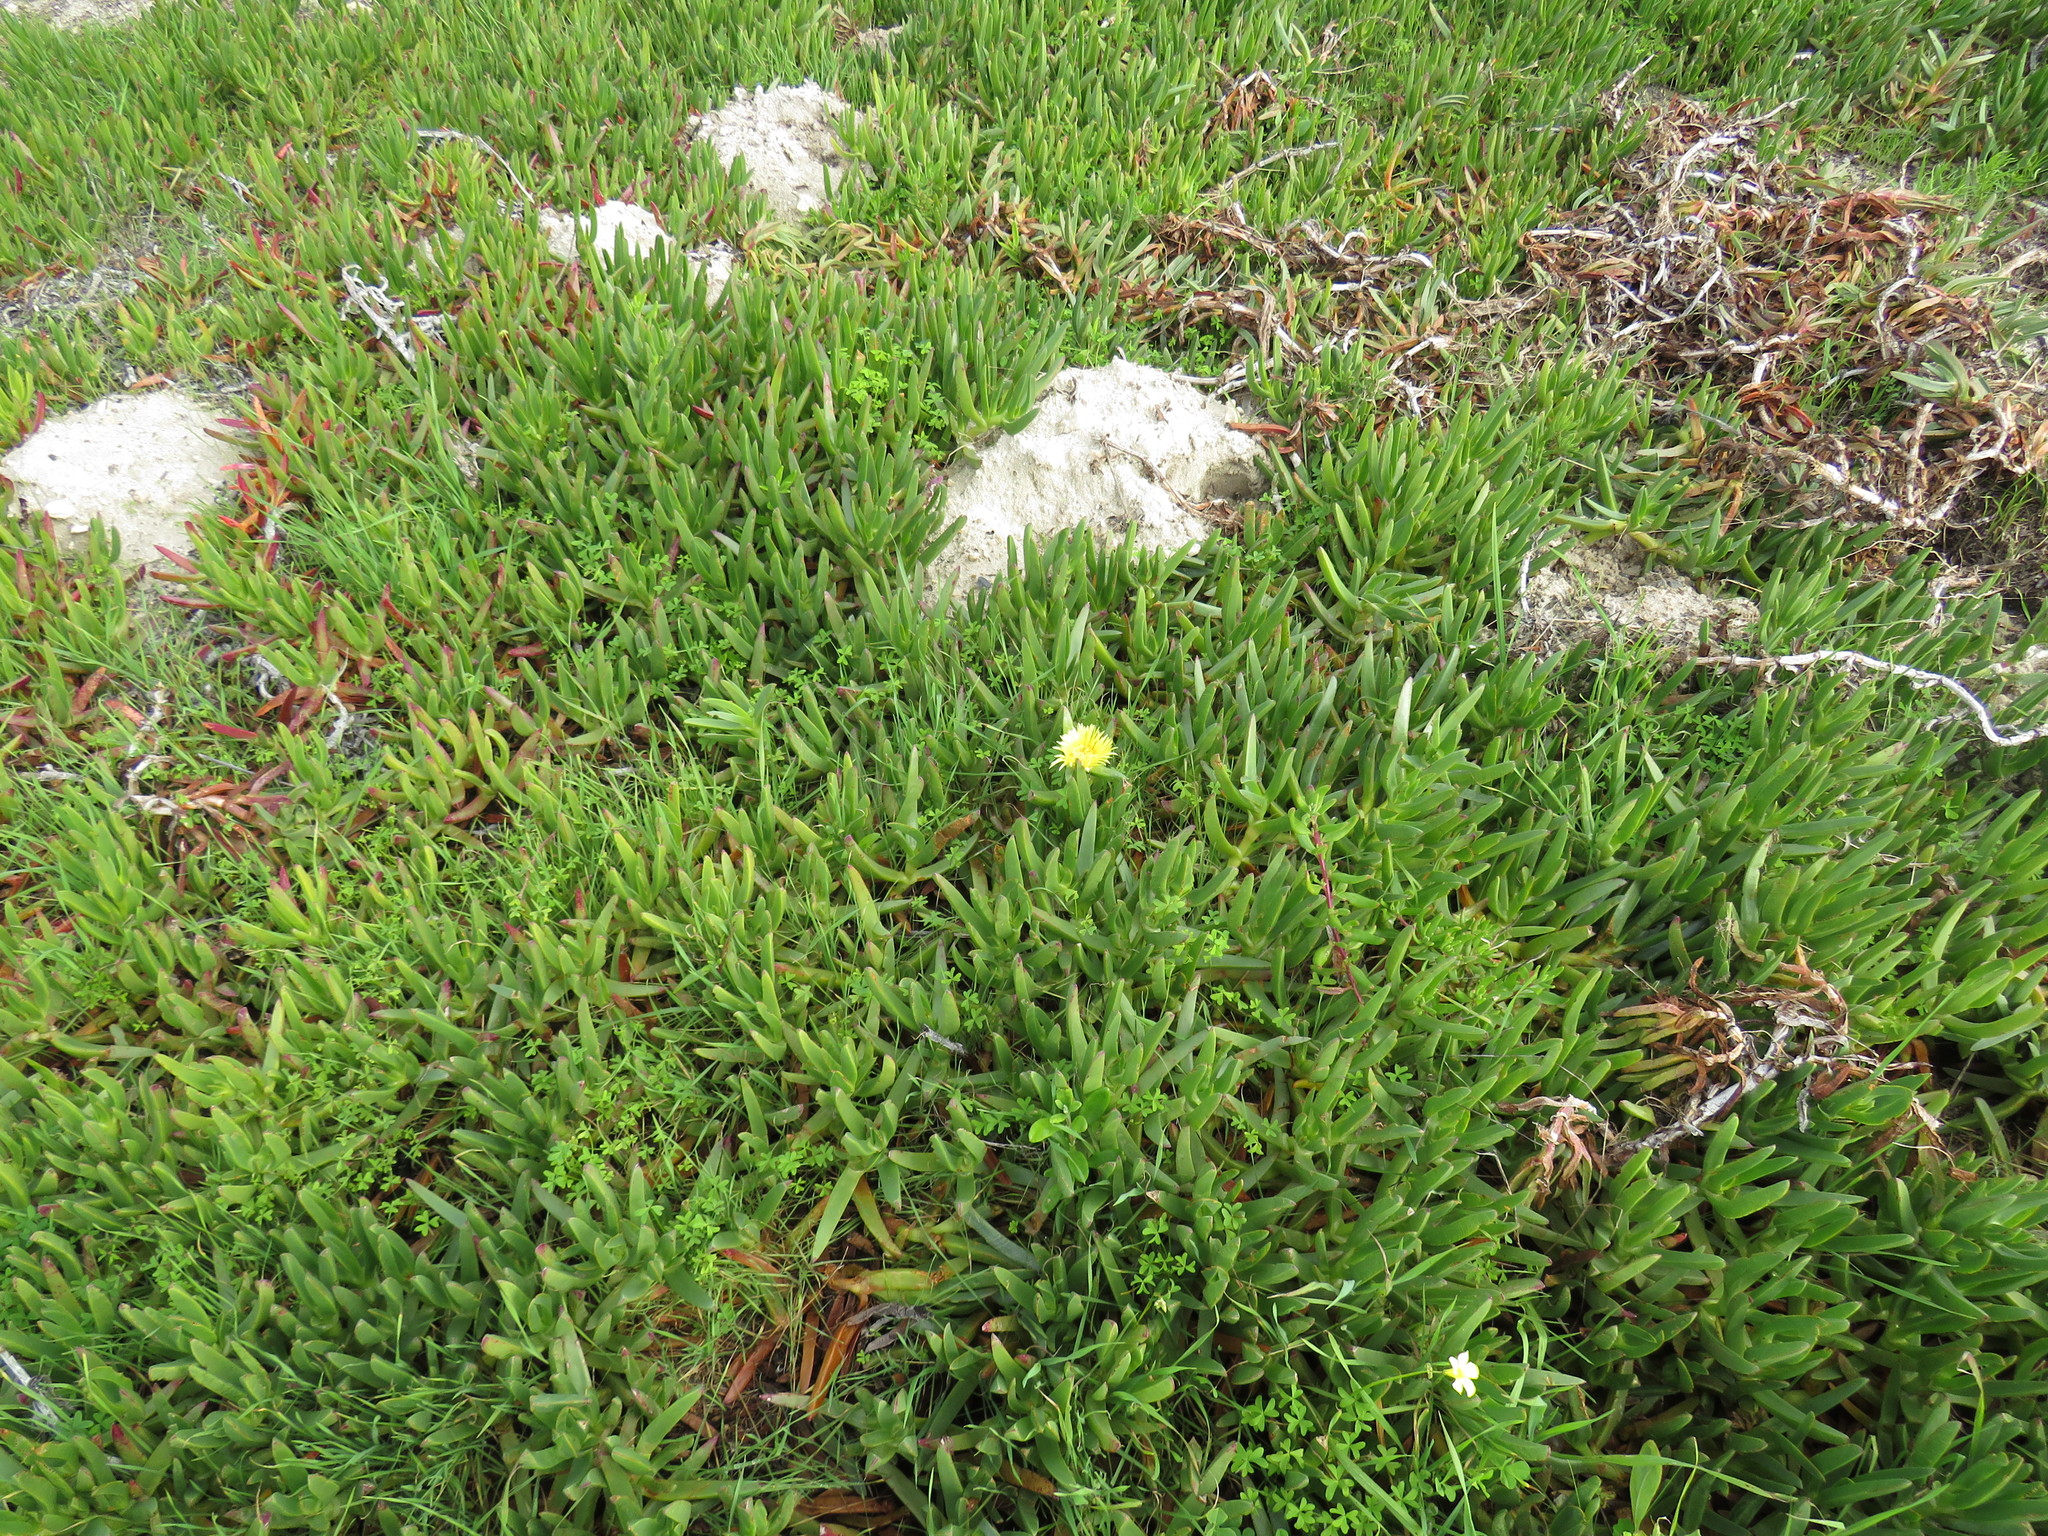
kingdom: Plantae
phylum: Tracheophyta
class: Magnoliopsida
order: Caryophyllales
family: Aizoaceae
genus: Carpobrotus
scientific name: Carpobrotus edulis
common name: Hottentot-fig
